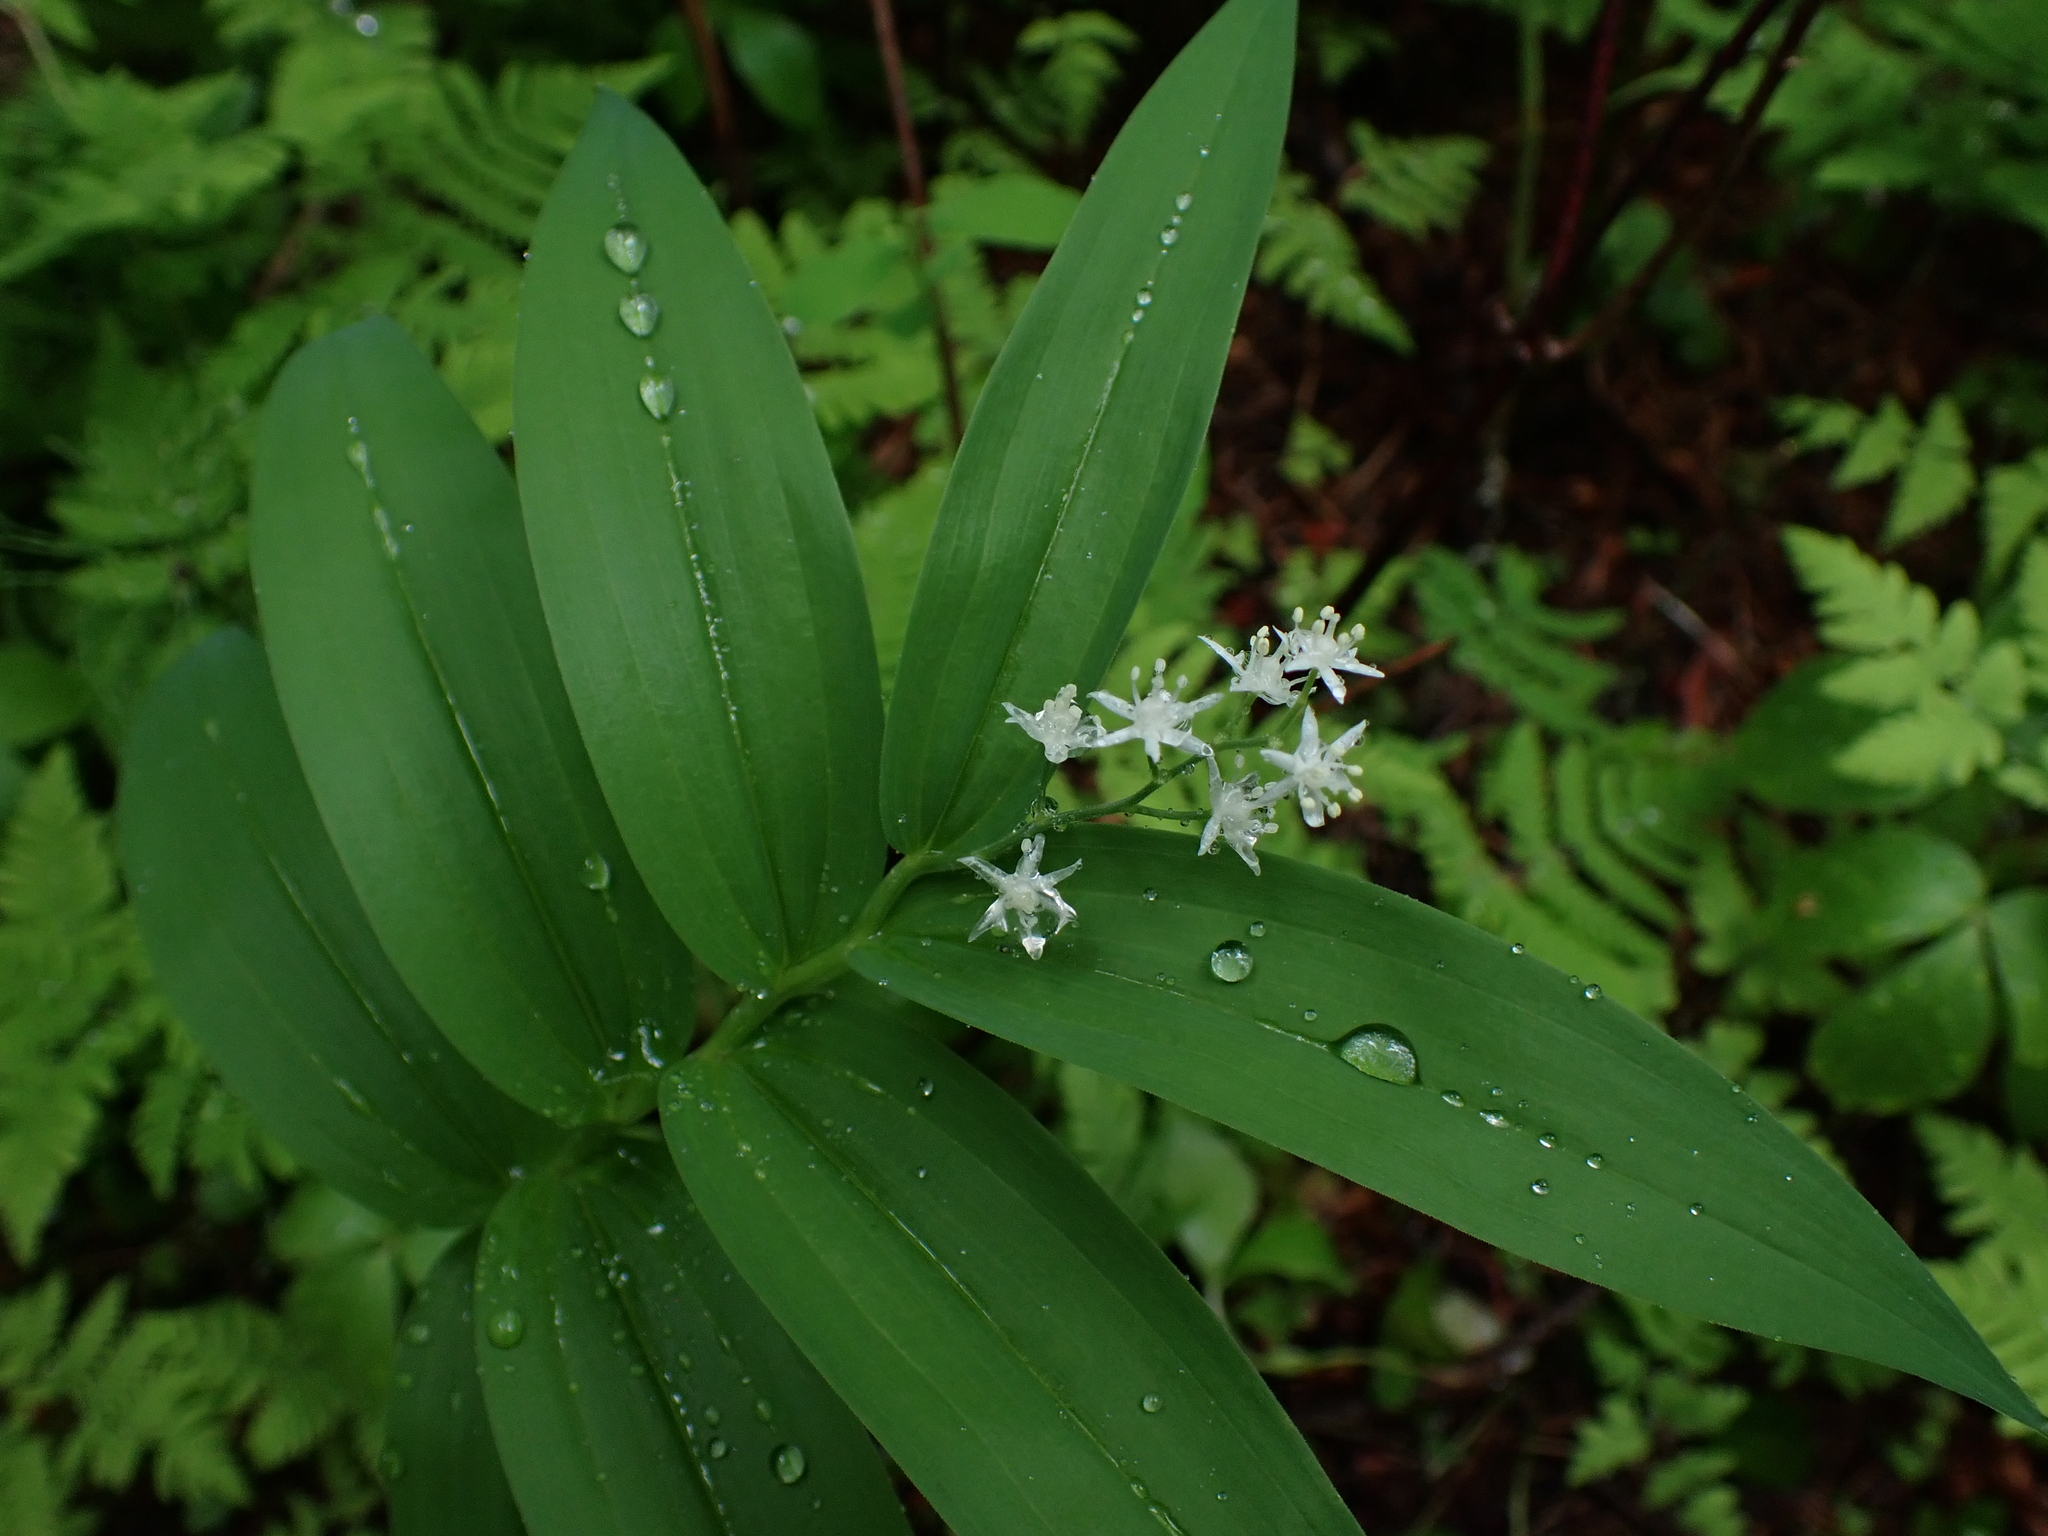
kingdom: Plantae
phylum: Tracheophyta
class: Liliopsida
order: Asparagales
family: Asparagaceae
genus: Maianthemum
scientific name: Maianthemum stellatum
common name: Little false solomon's seal
